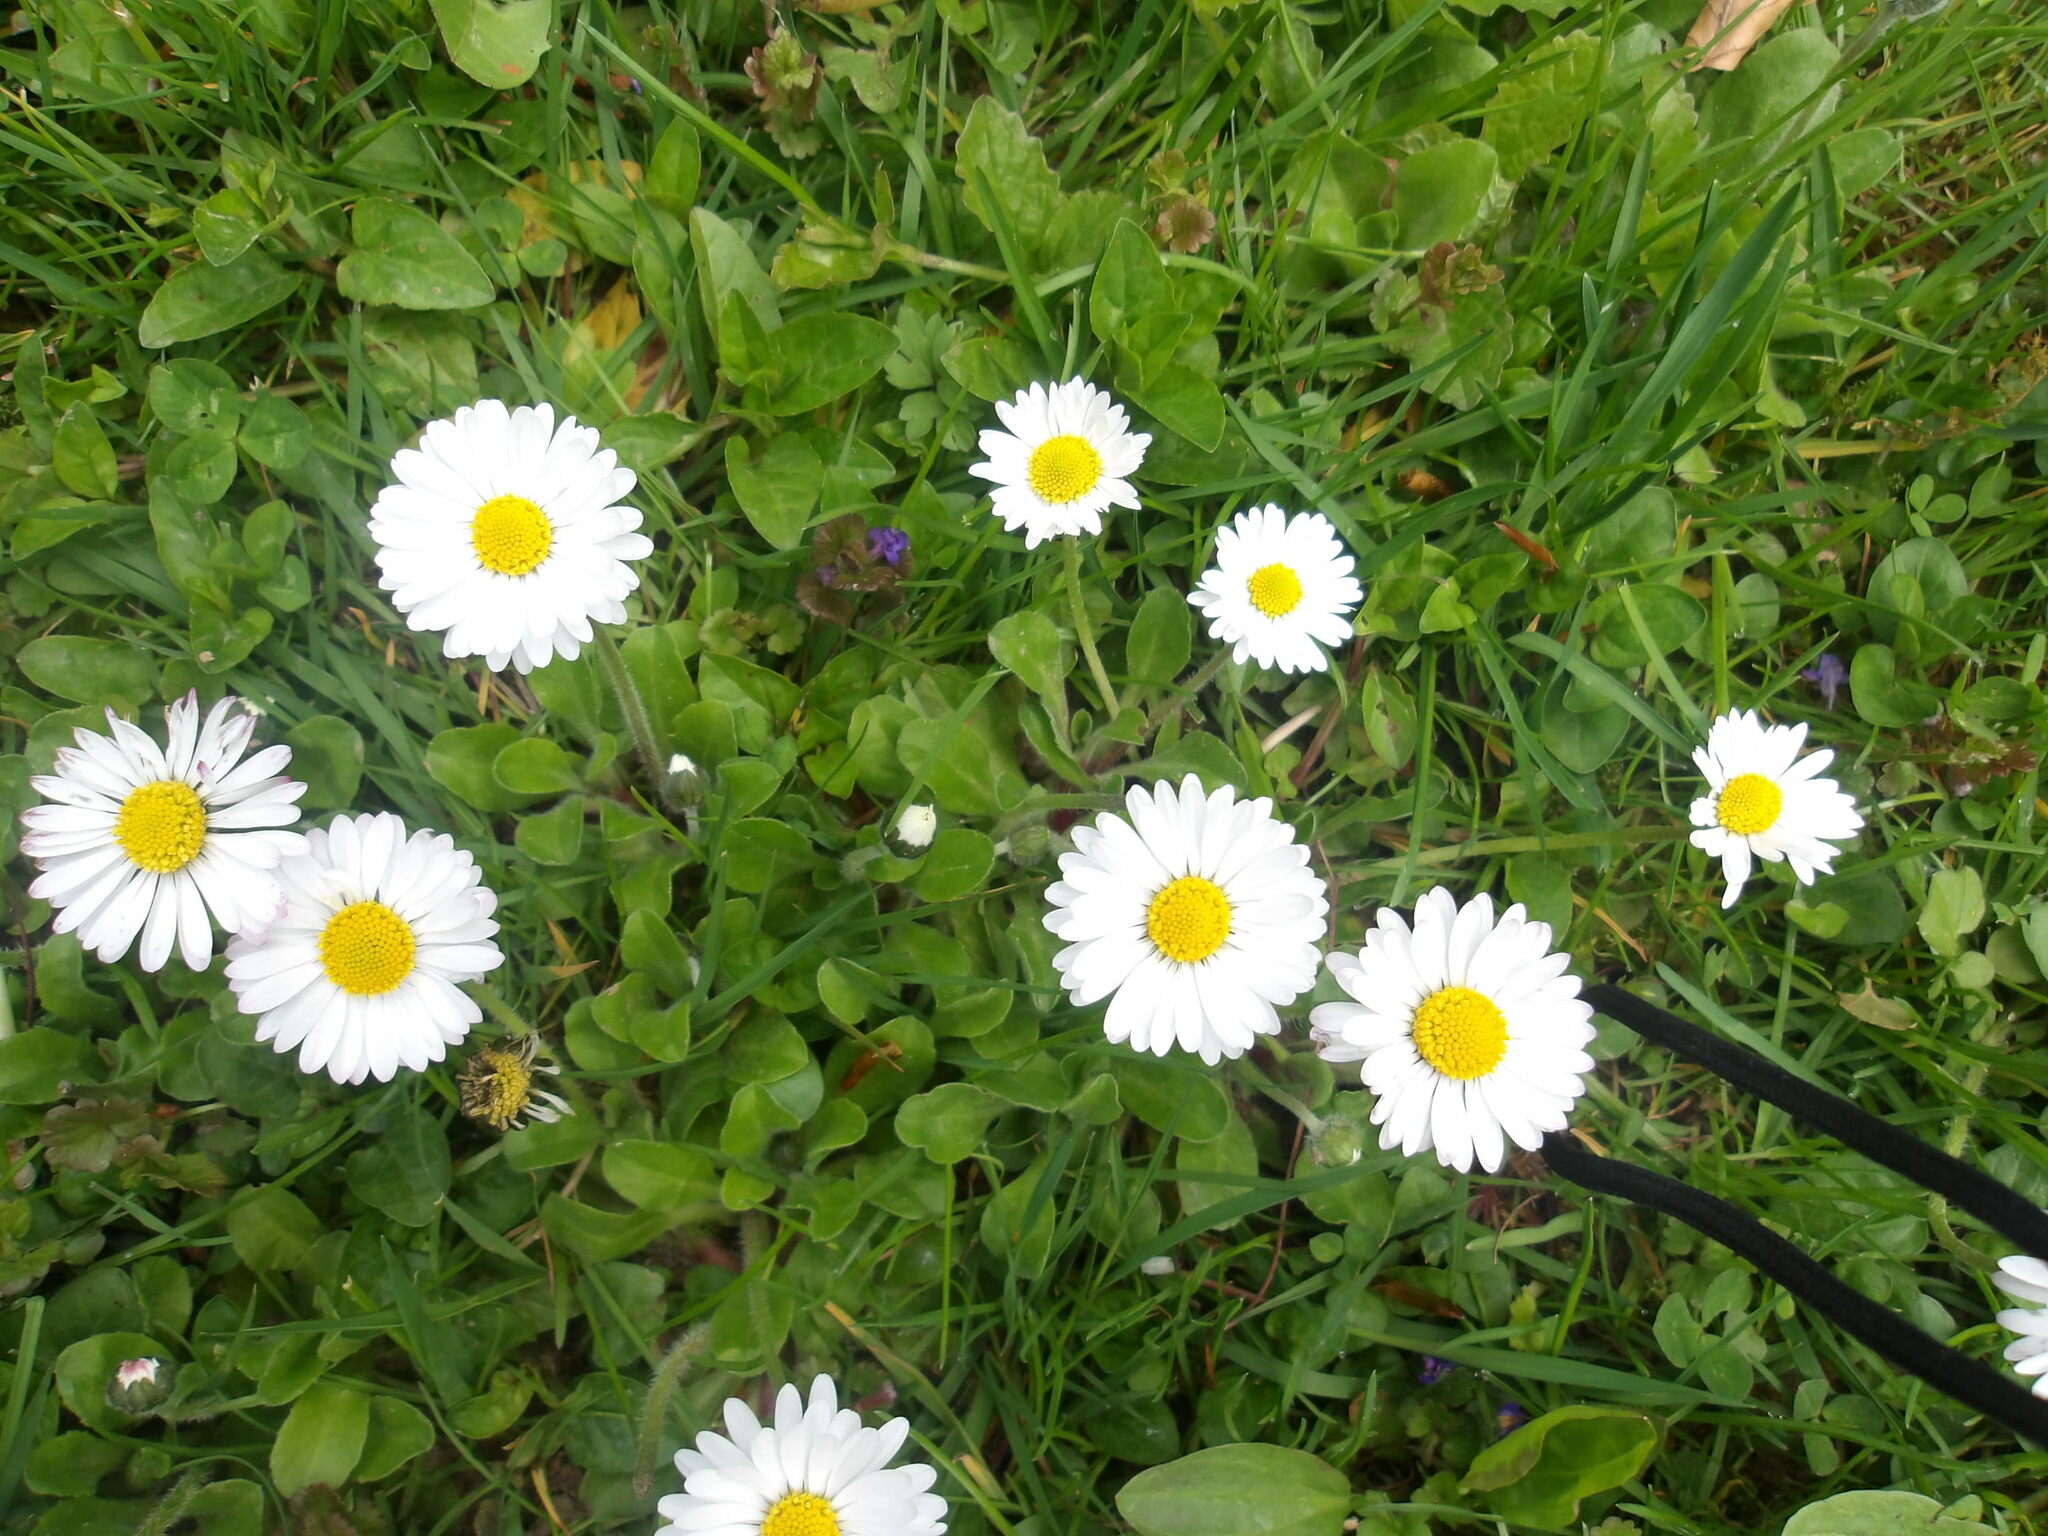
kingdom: Plantae
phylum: Tracheophyta
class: Magnoliopsida
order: Asterales
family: Asteraceae
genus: Bellis
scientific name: Bellis perennis
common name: Lawndaisy
